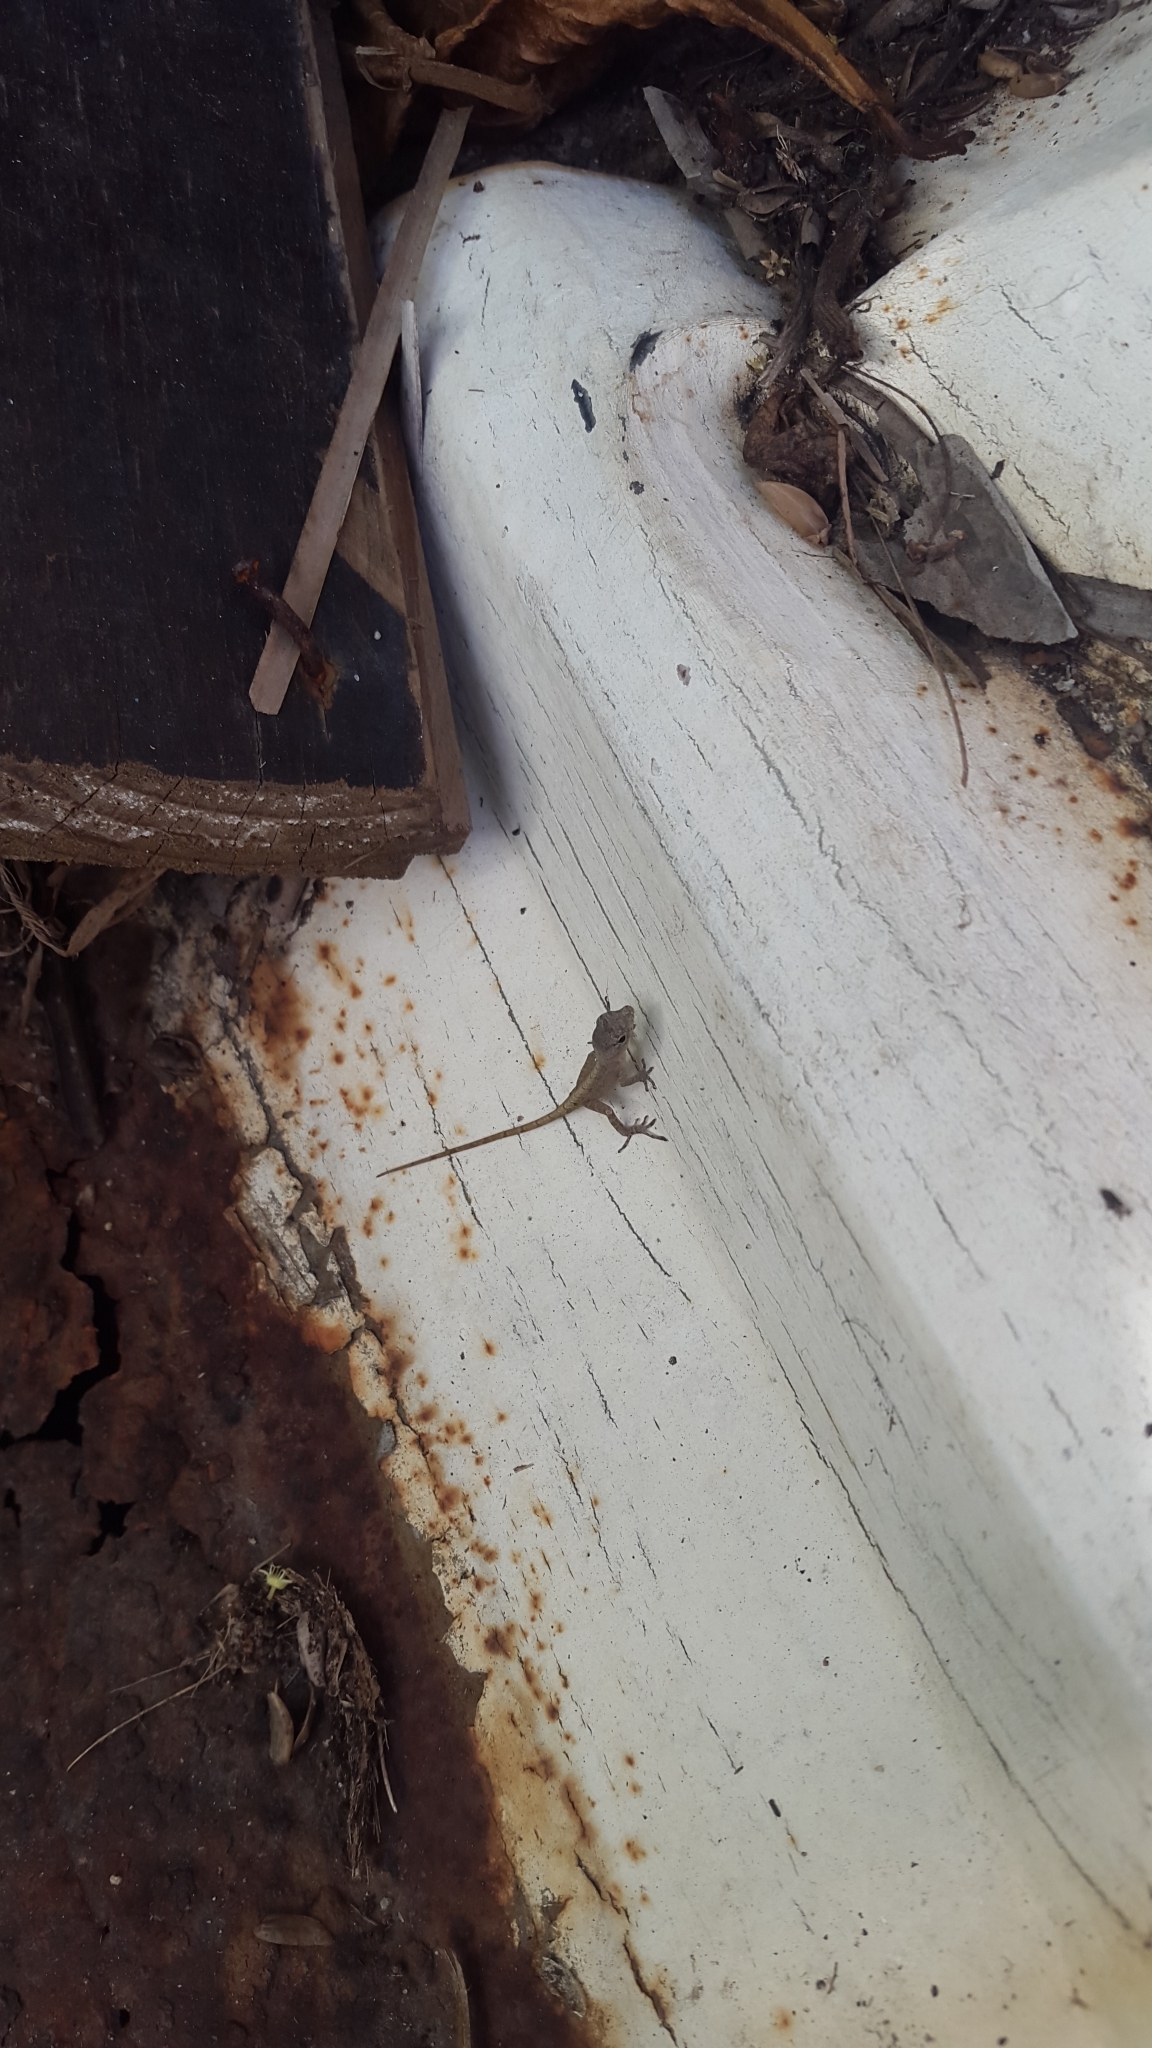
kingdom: Animalia
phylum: Chordata
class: Squamata
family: Dactyloidae
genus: Anolis
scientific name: Anolis sagrei
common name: Brown anole
